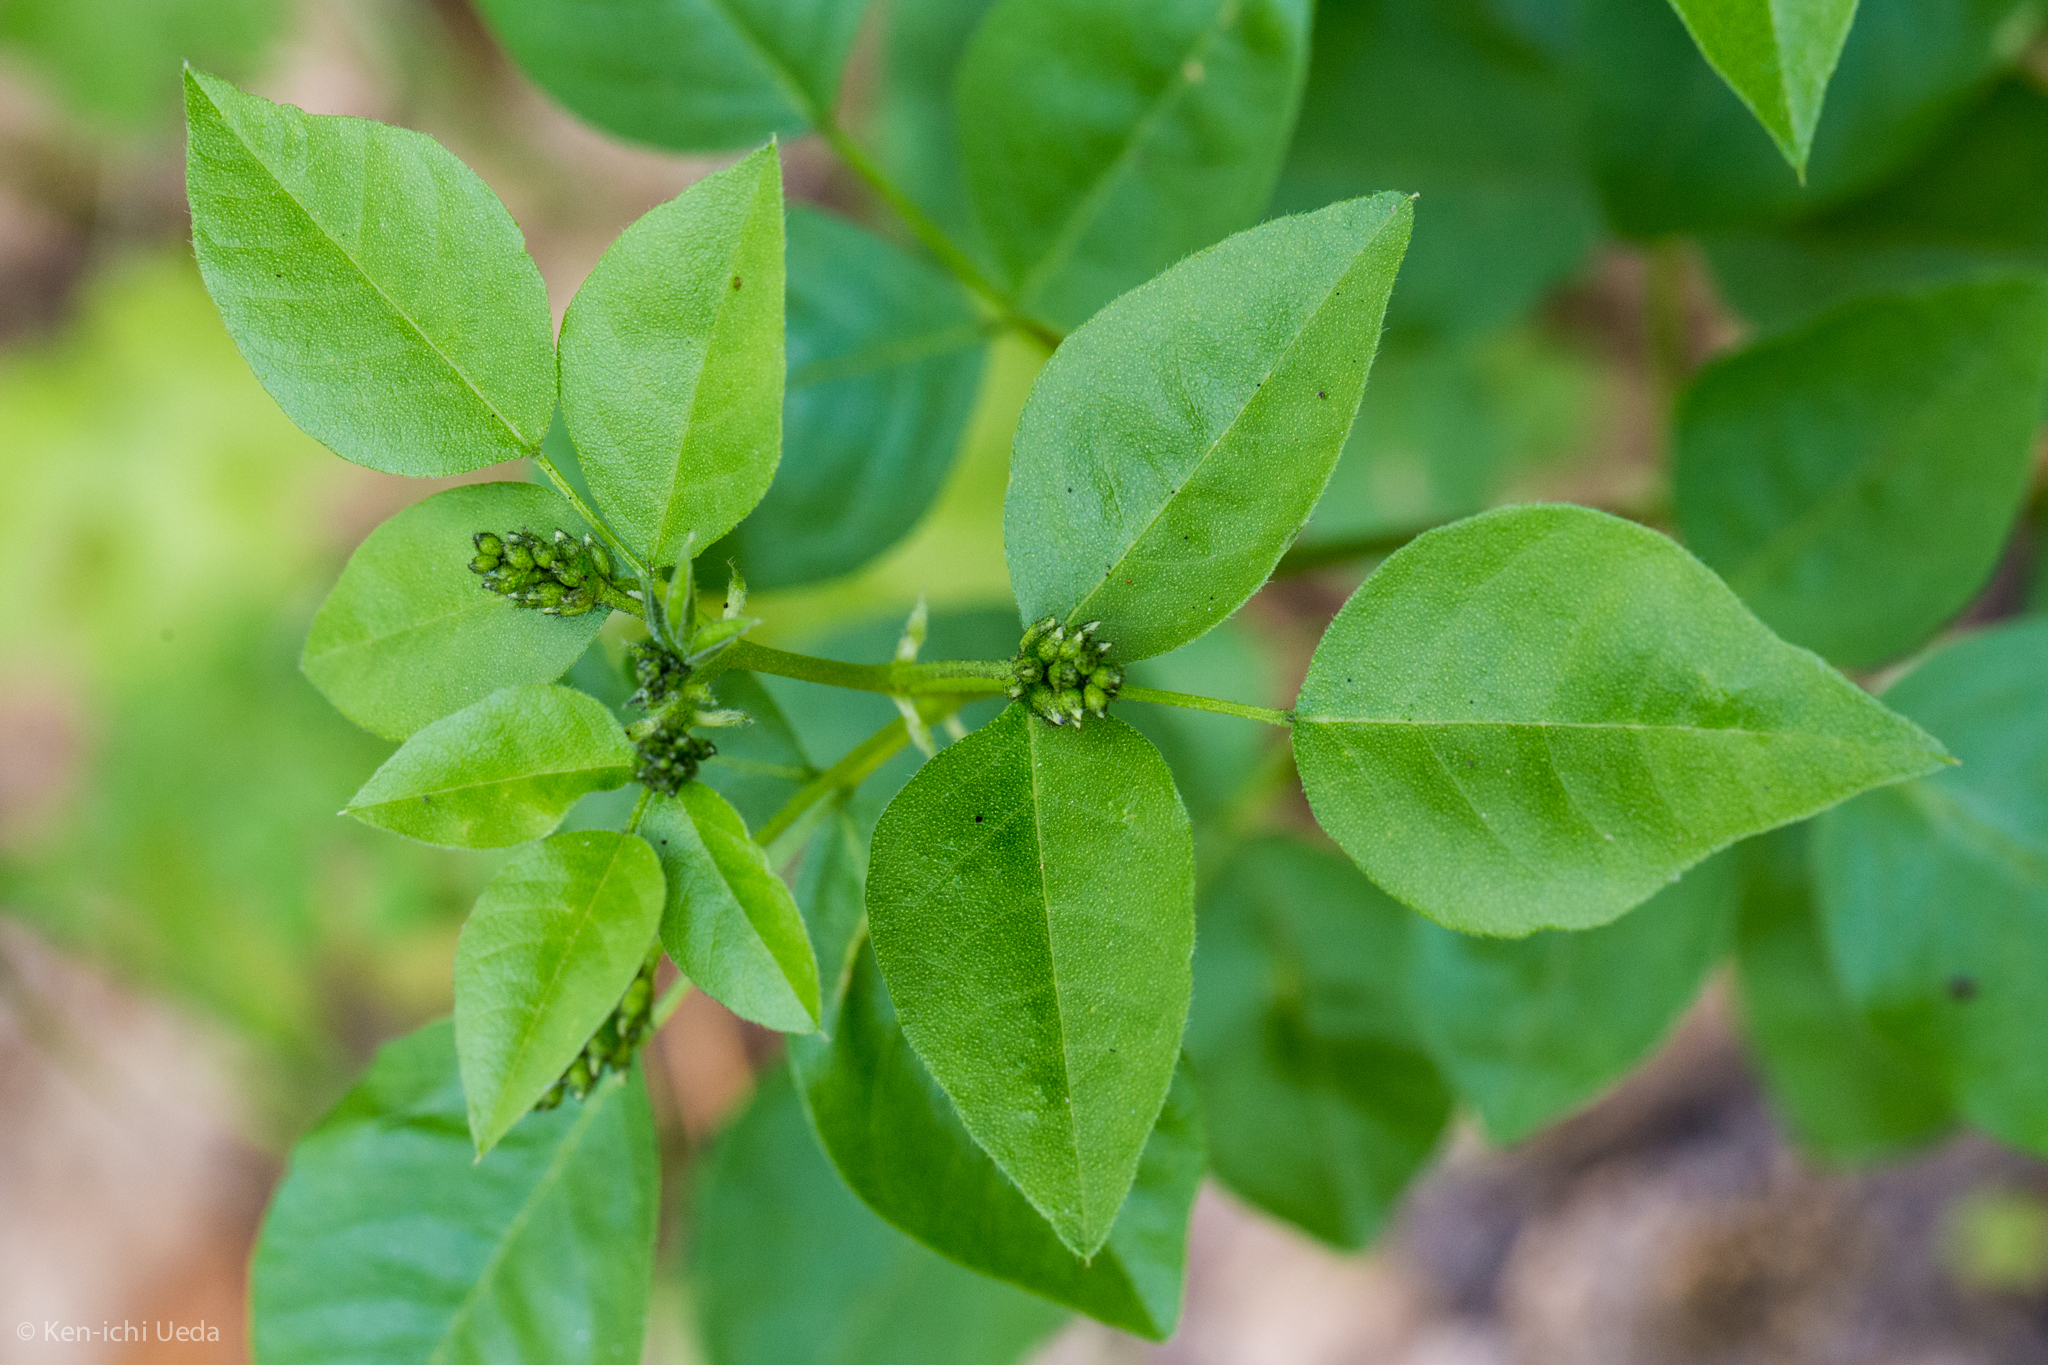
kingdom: Plantae
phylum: Tracheophyta
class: Magnoliopsida
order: Fabales
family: Fabaceae
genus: Rupertia
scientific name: Rupertia physodes
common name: California-tea
